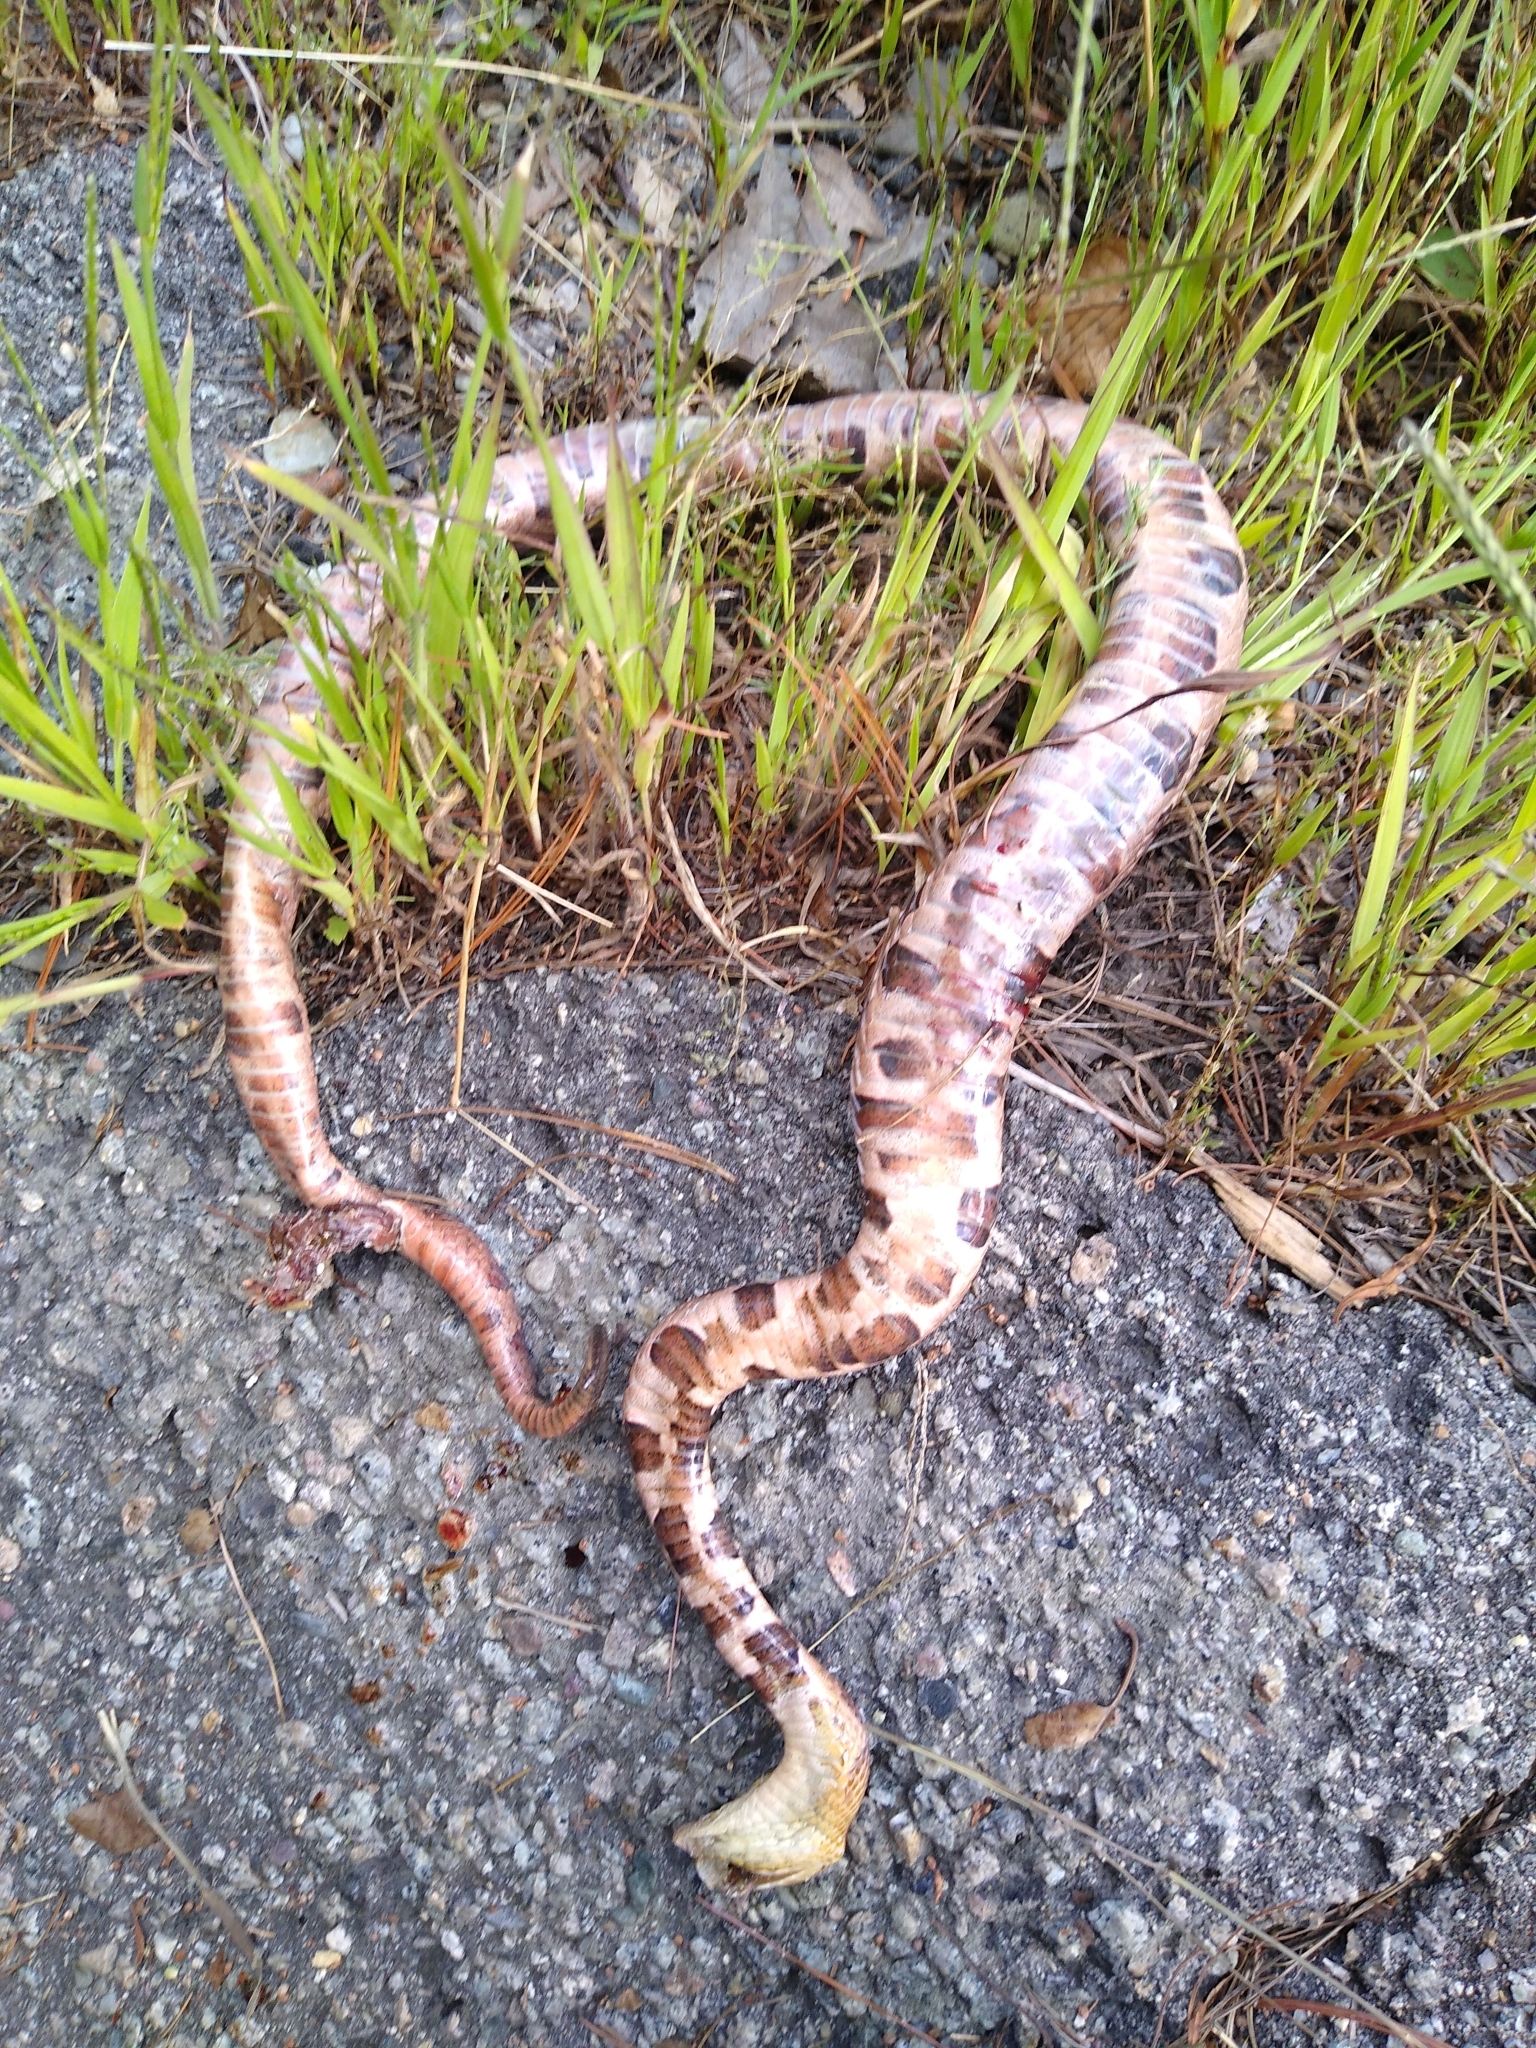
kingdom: Animalia
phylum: Chordata
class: Squamata
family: Viperidae
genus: Agkistrodon
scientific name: Agkistrodon contortrix
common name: Northern copperhead
